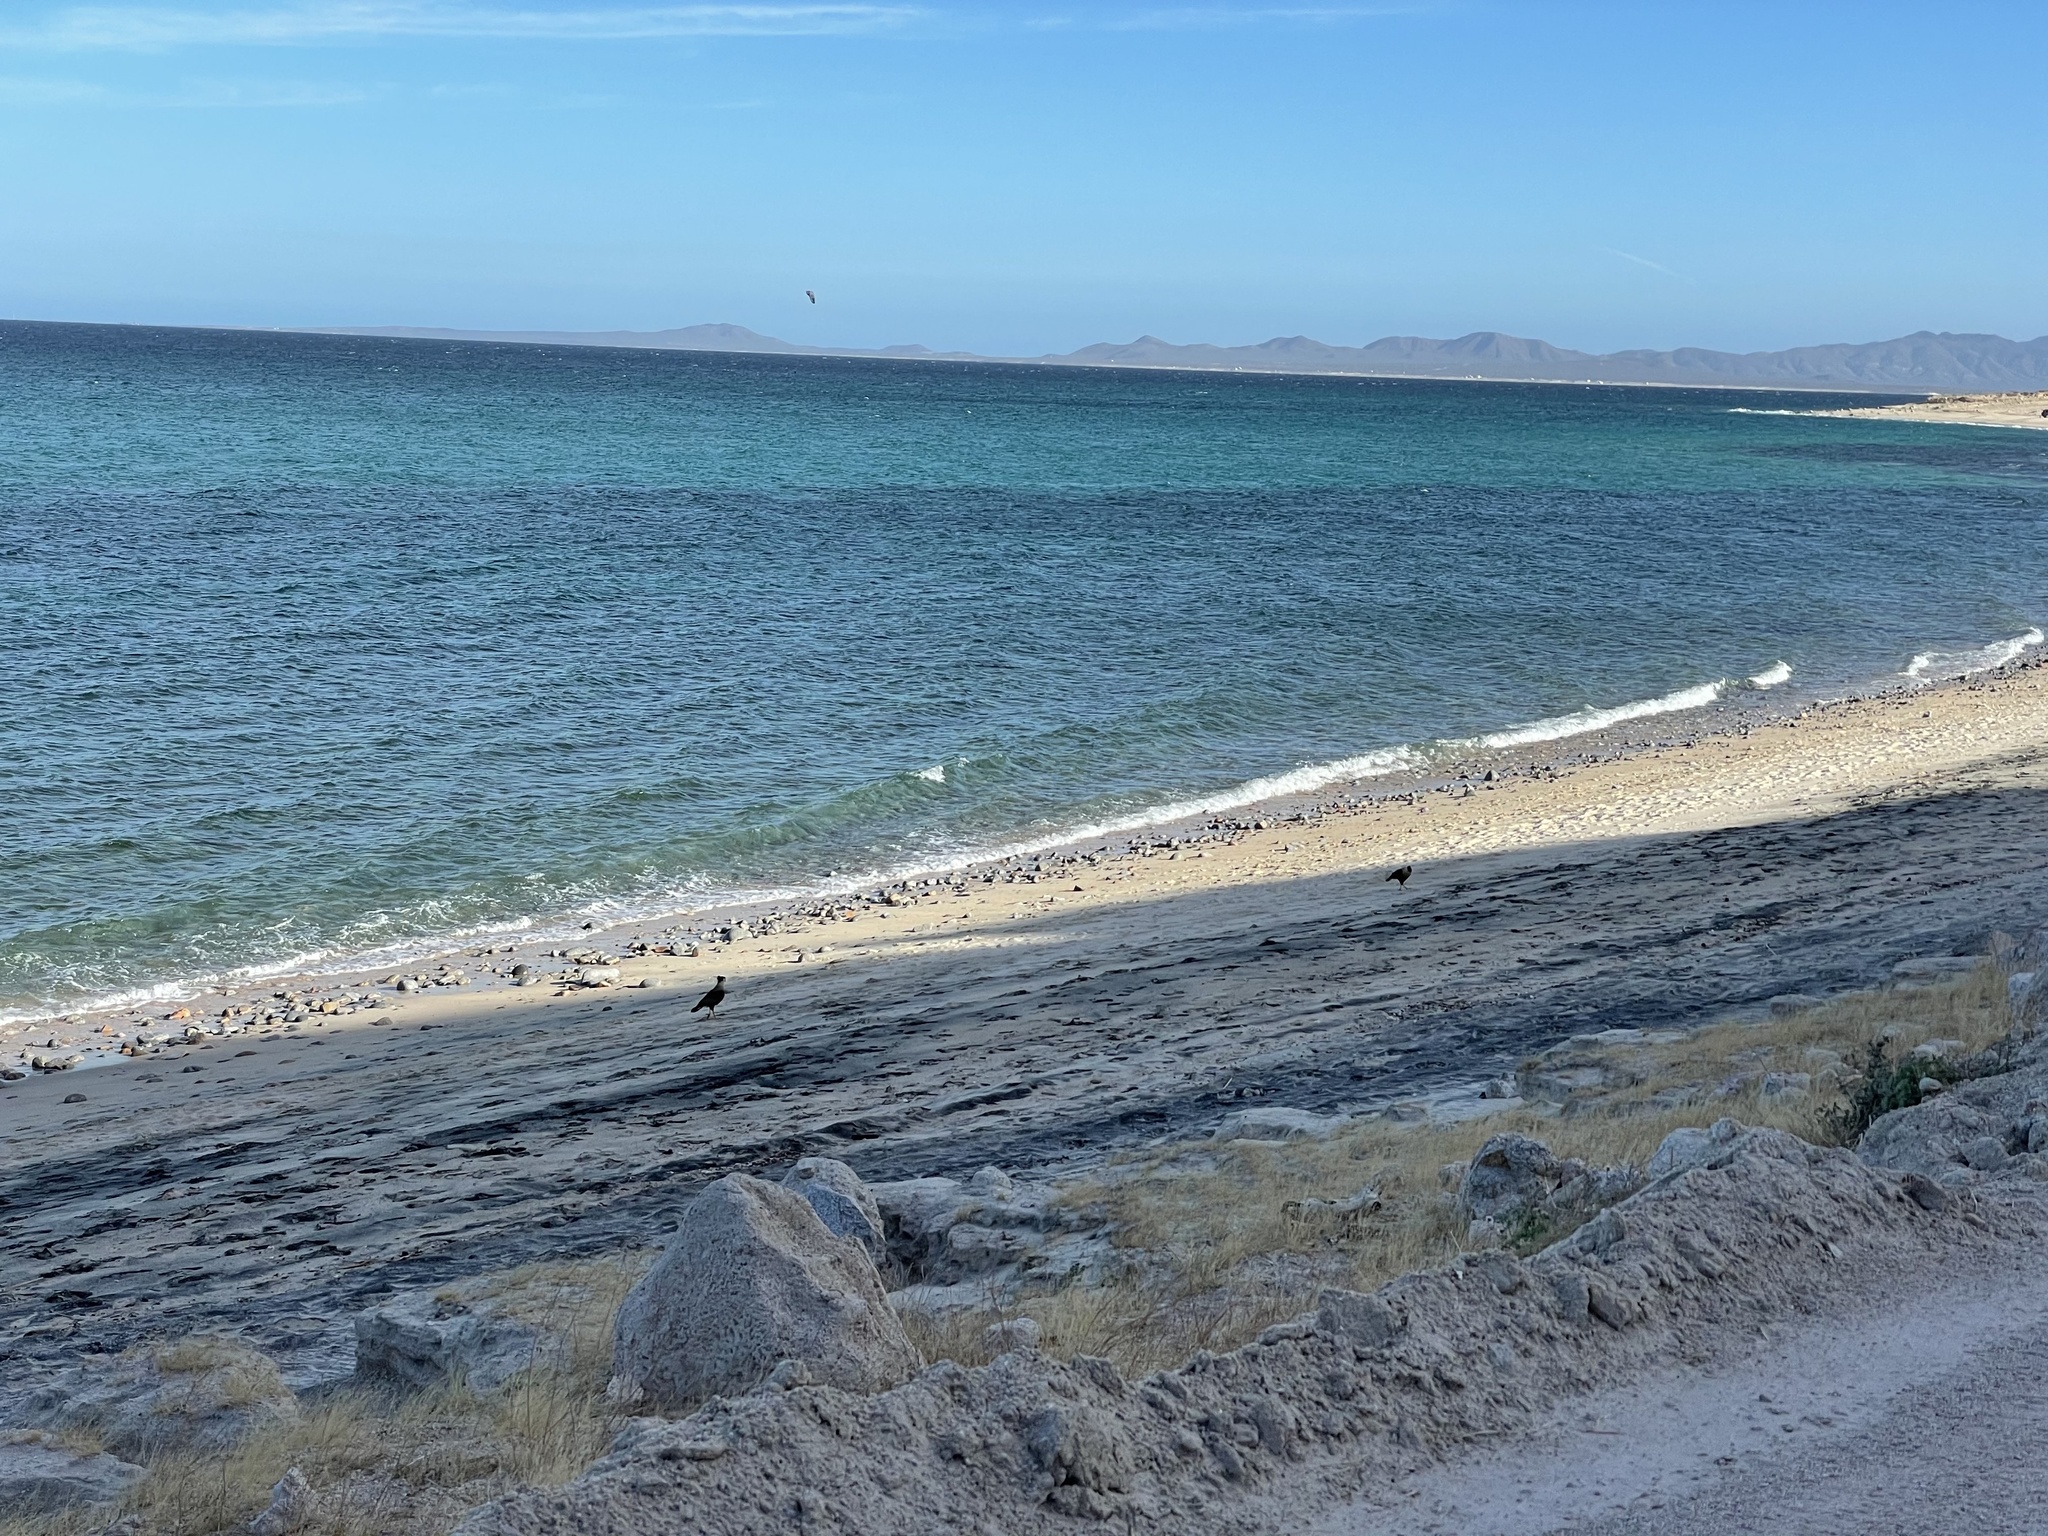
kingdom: Animalia
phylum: Chordata
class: Aves
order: Falconiformes
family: Falconidae
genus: Caracara
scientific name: Caracara plancus
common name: Southern caracara
